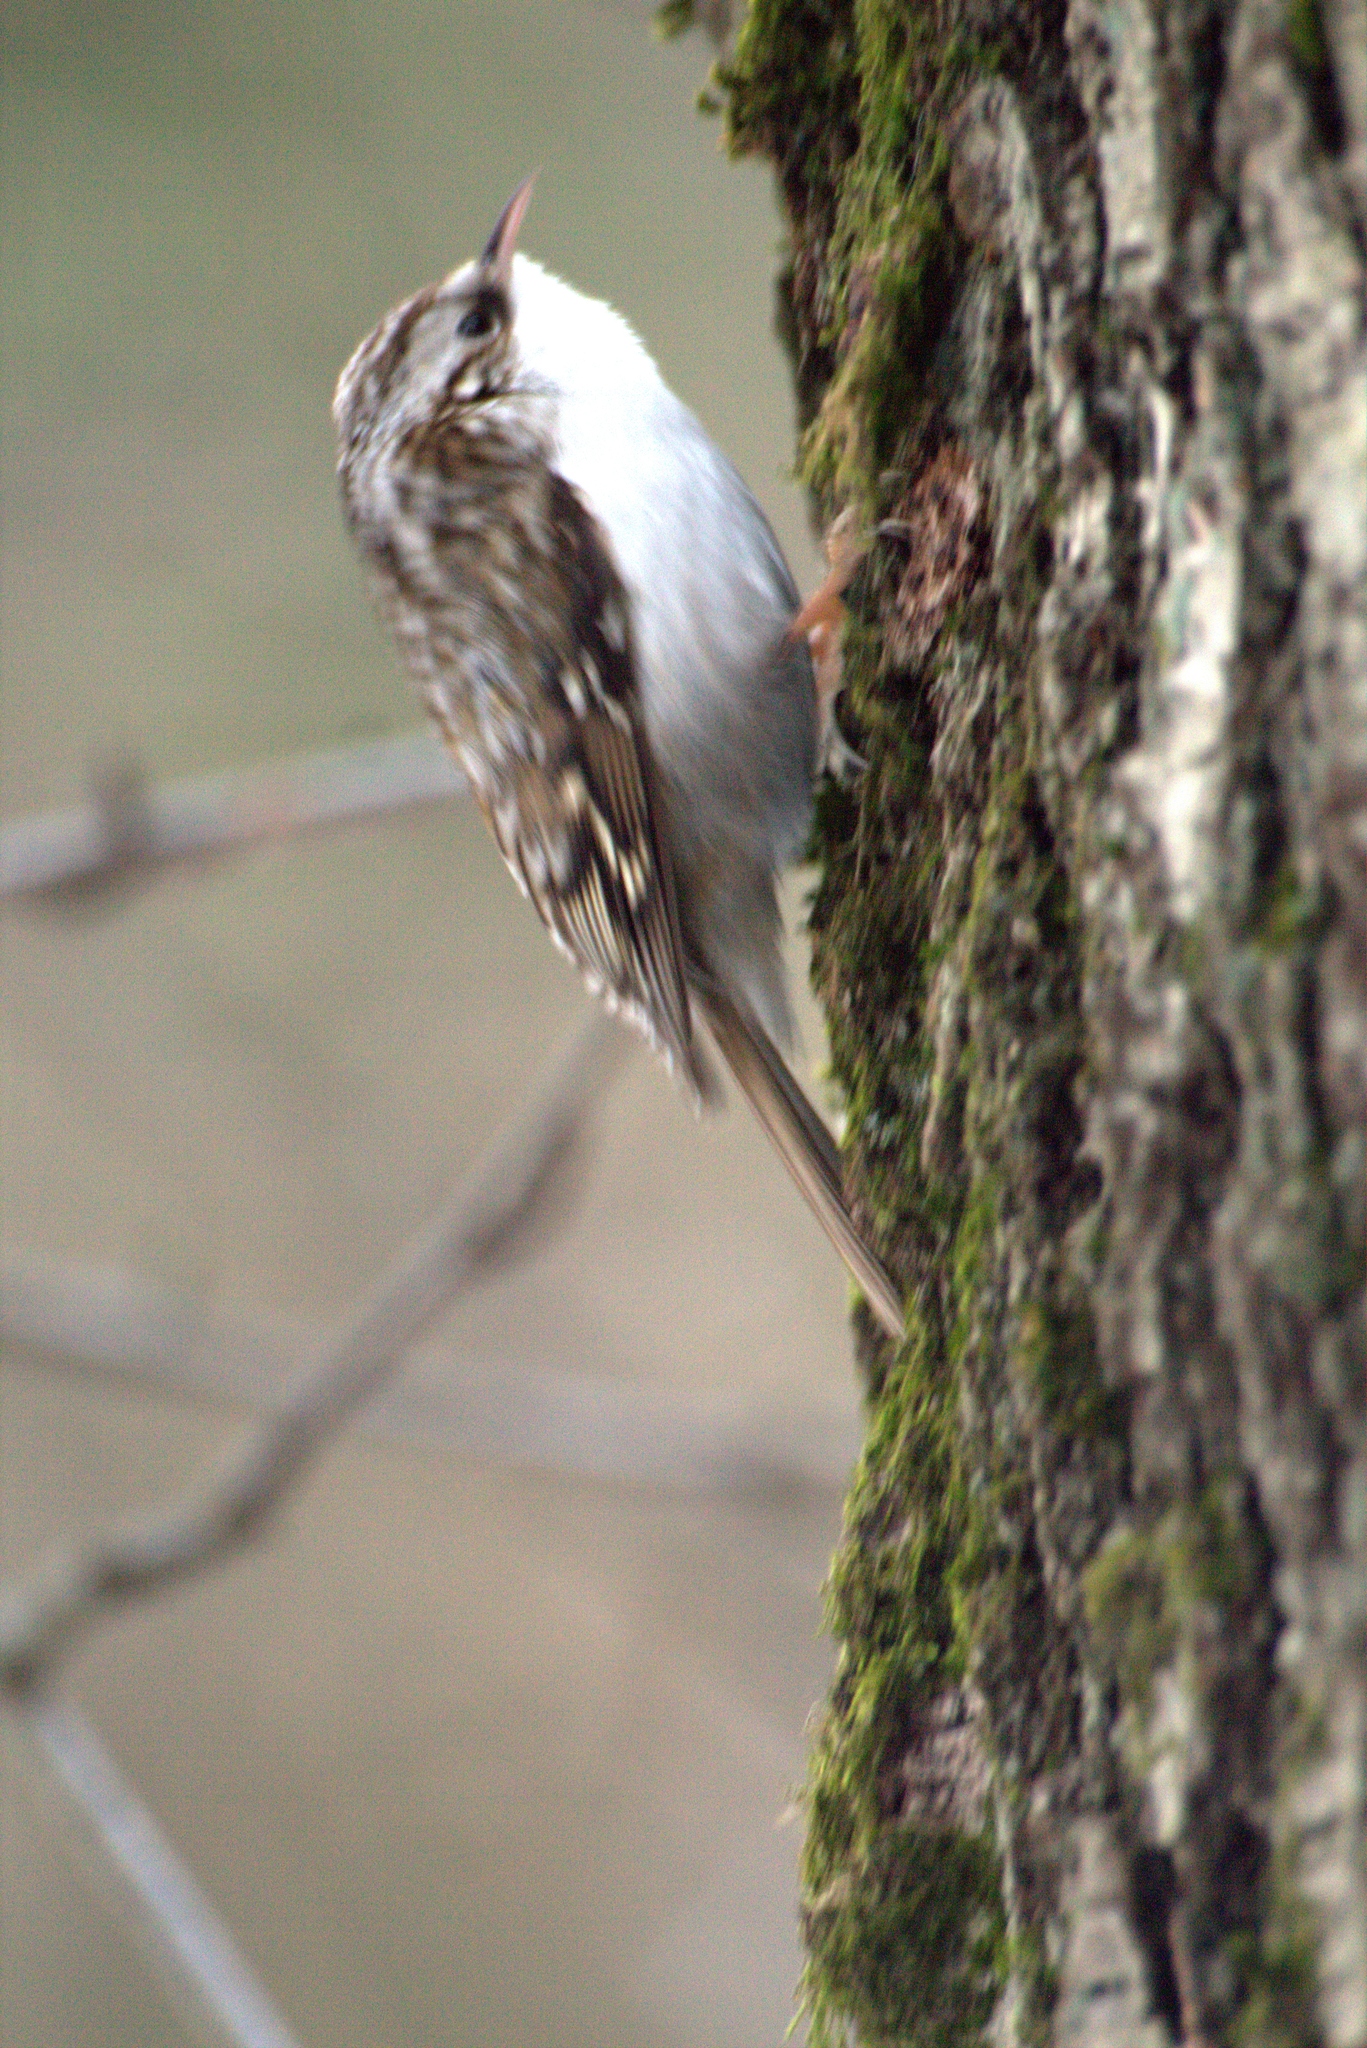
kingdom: Animalia
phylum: Chordata
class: Aves
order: Passeriformes
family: Certhiidae
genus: Certhia
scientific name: Certhia familiaris
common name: Eurasian treecreeper
